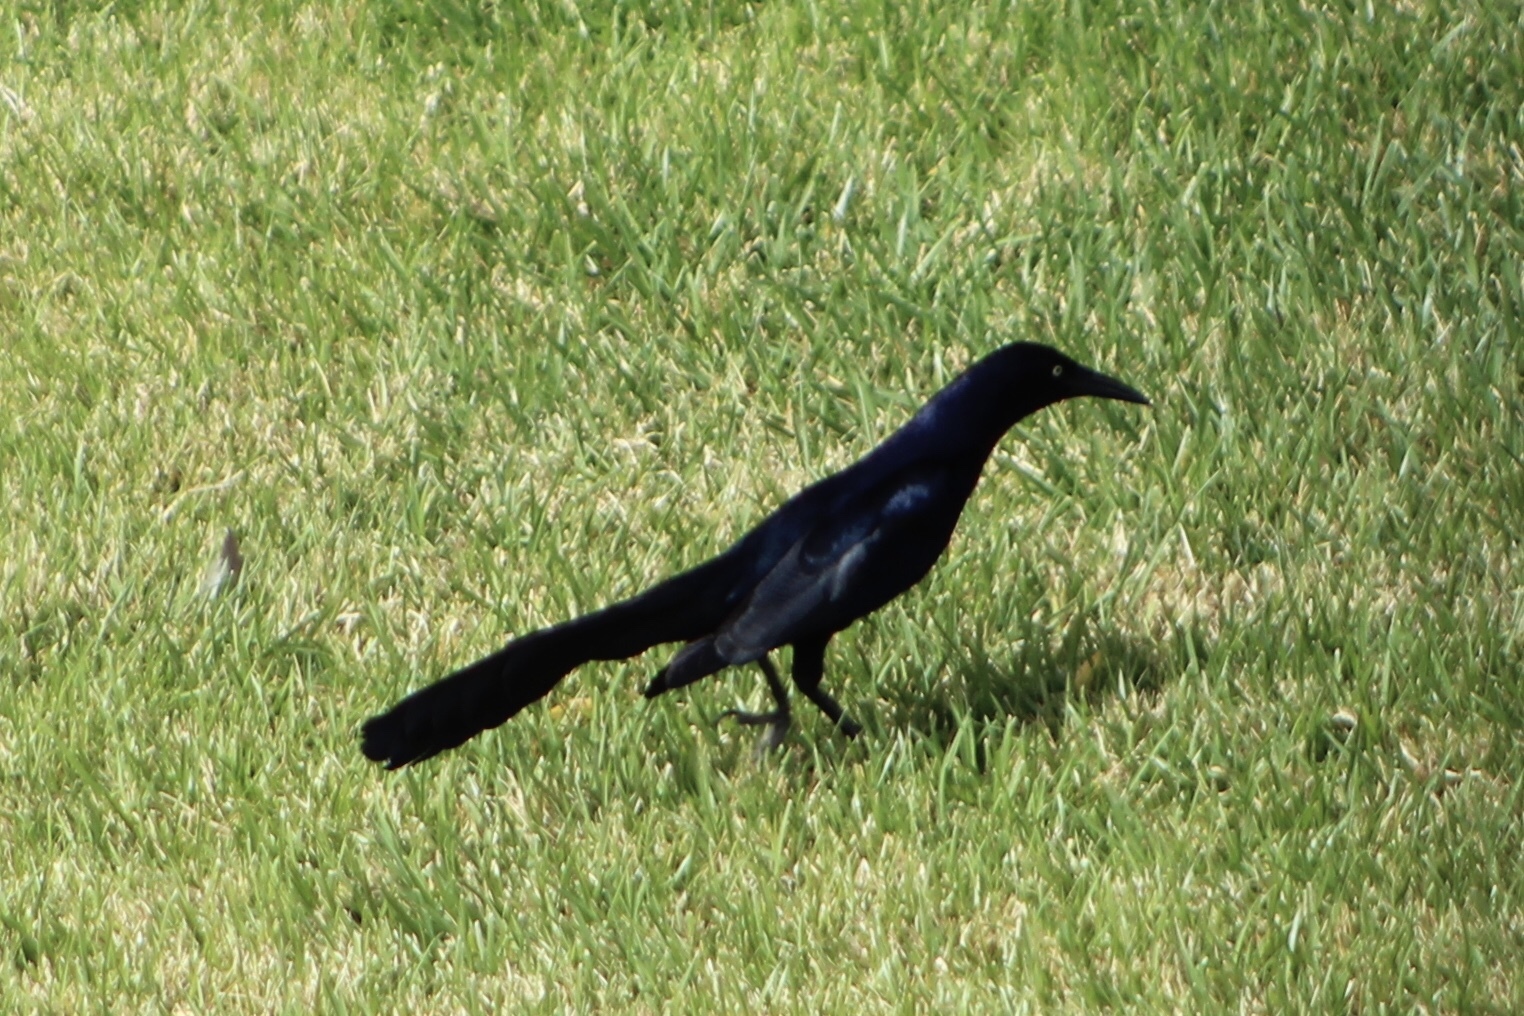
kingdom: Animalia
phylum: Chordata
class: Aves
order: Passeriformes
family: Icteridae
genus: Quiscalus
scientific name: Quiscalus mexicanus
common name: Great-tailed grackle
